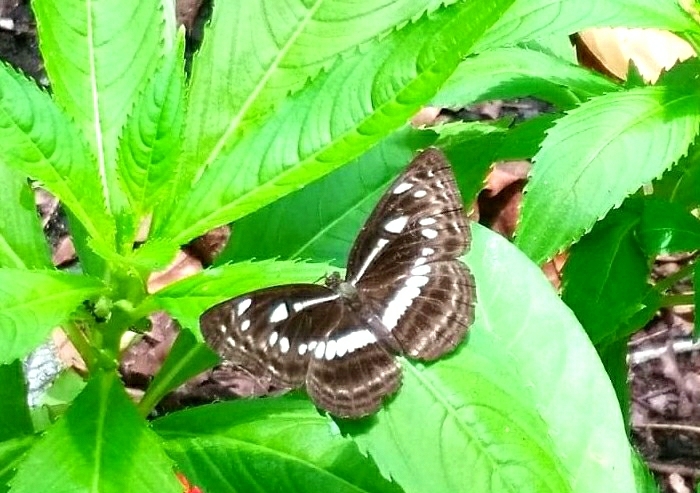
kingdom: Animalia
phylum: Arthropoda
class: Insecta
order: Lepidoptera
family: Nymphalidae
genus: Neptis
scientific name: Neptis jumbah
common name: Chestnut-streaked sailer
